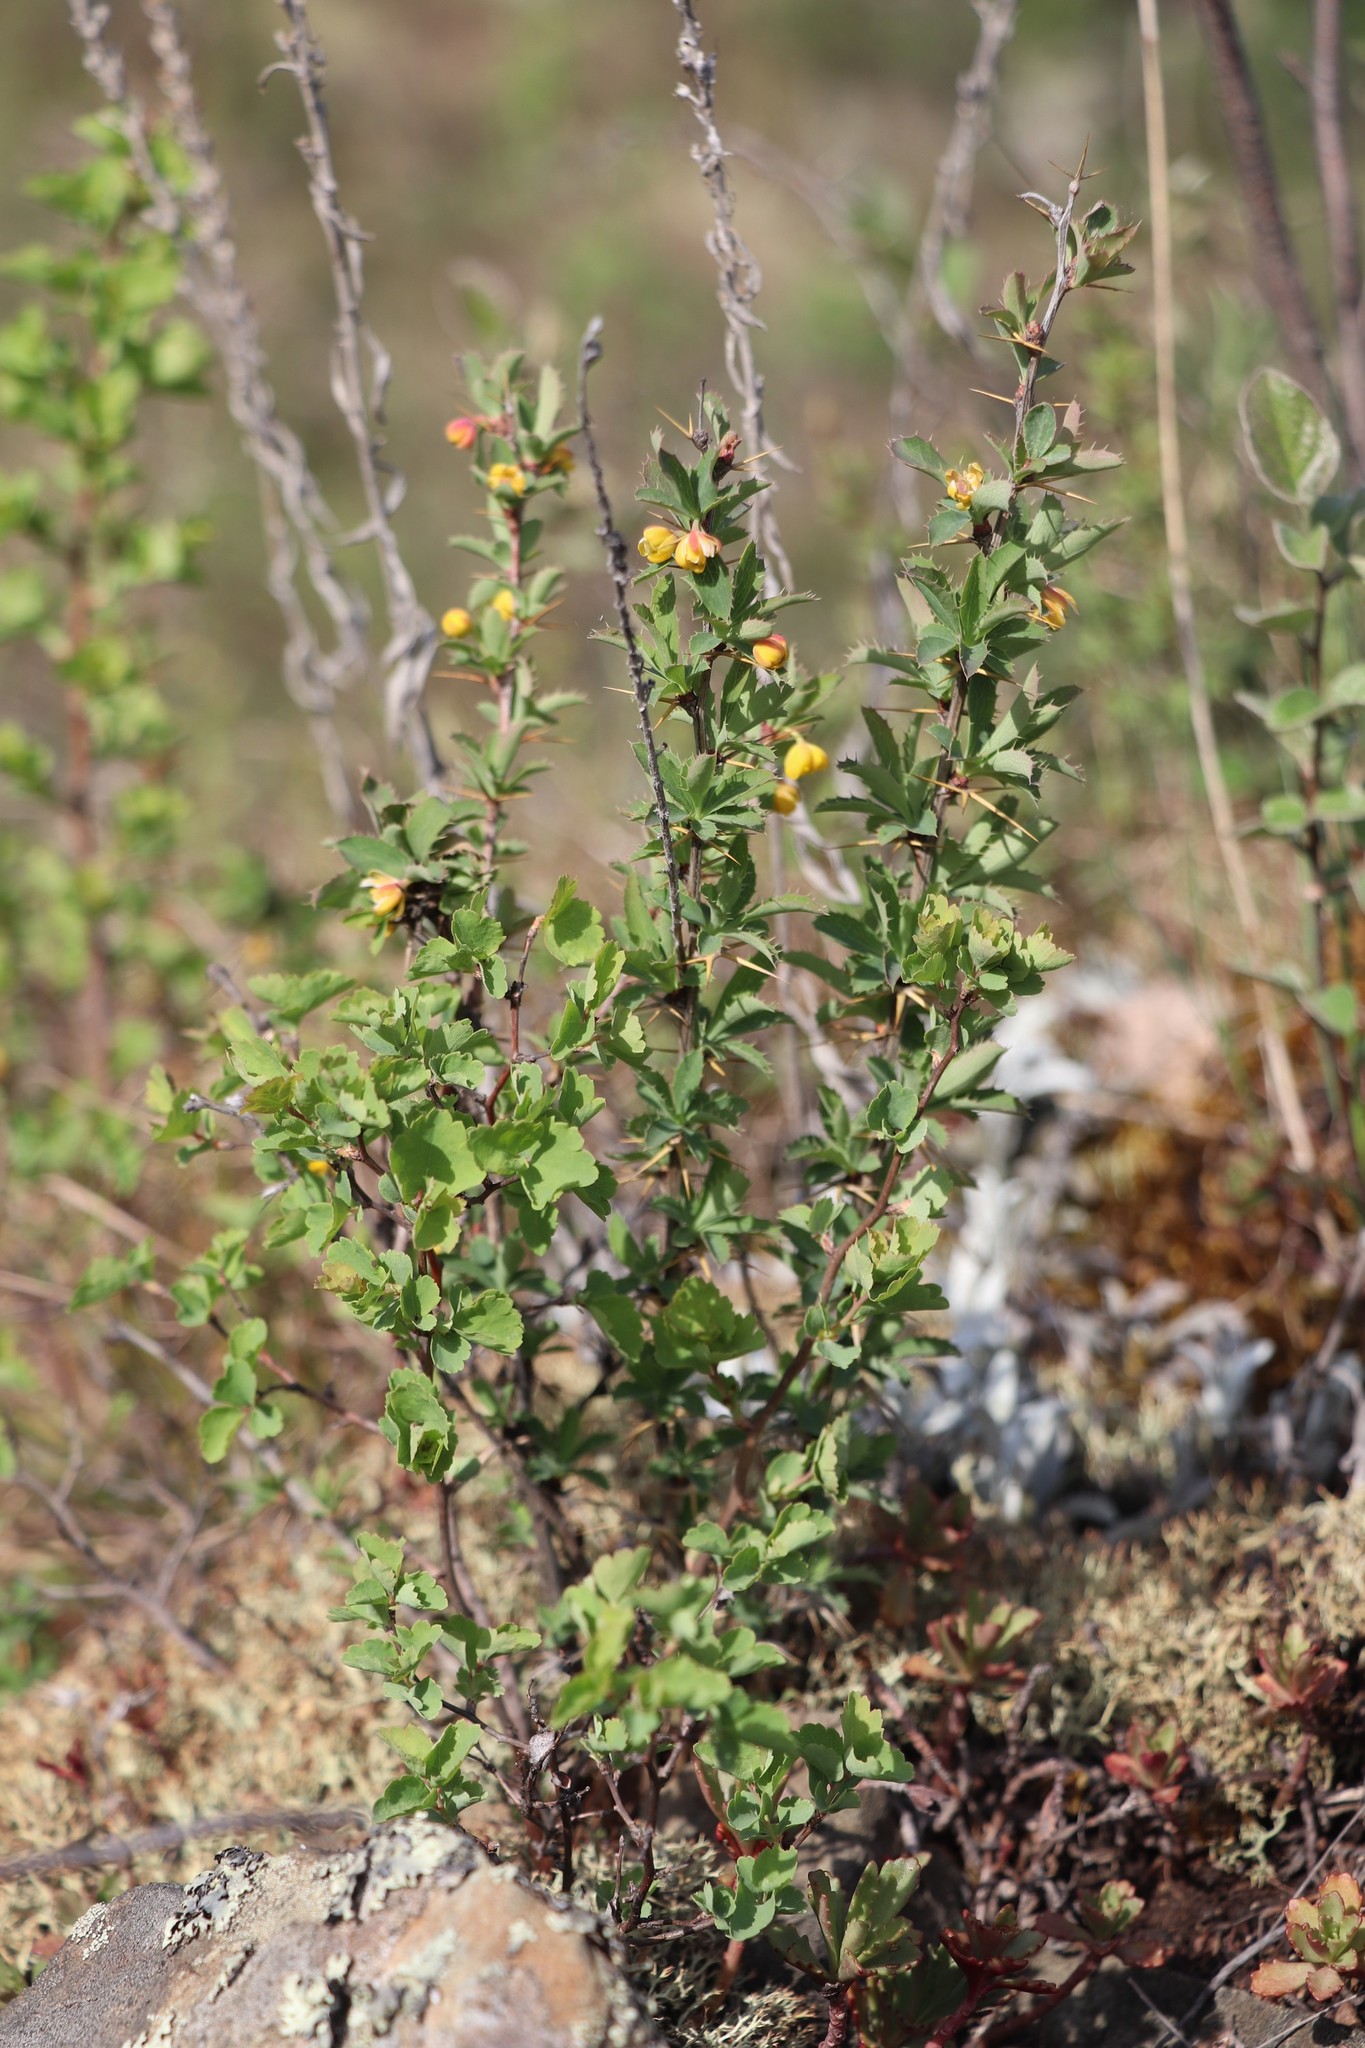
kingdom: Plantae
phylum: Tracheophyta
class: Magnoliopsida
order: Ranunculales
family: Berberidaceae
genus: Berberis
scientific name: Berberis sibirica
